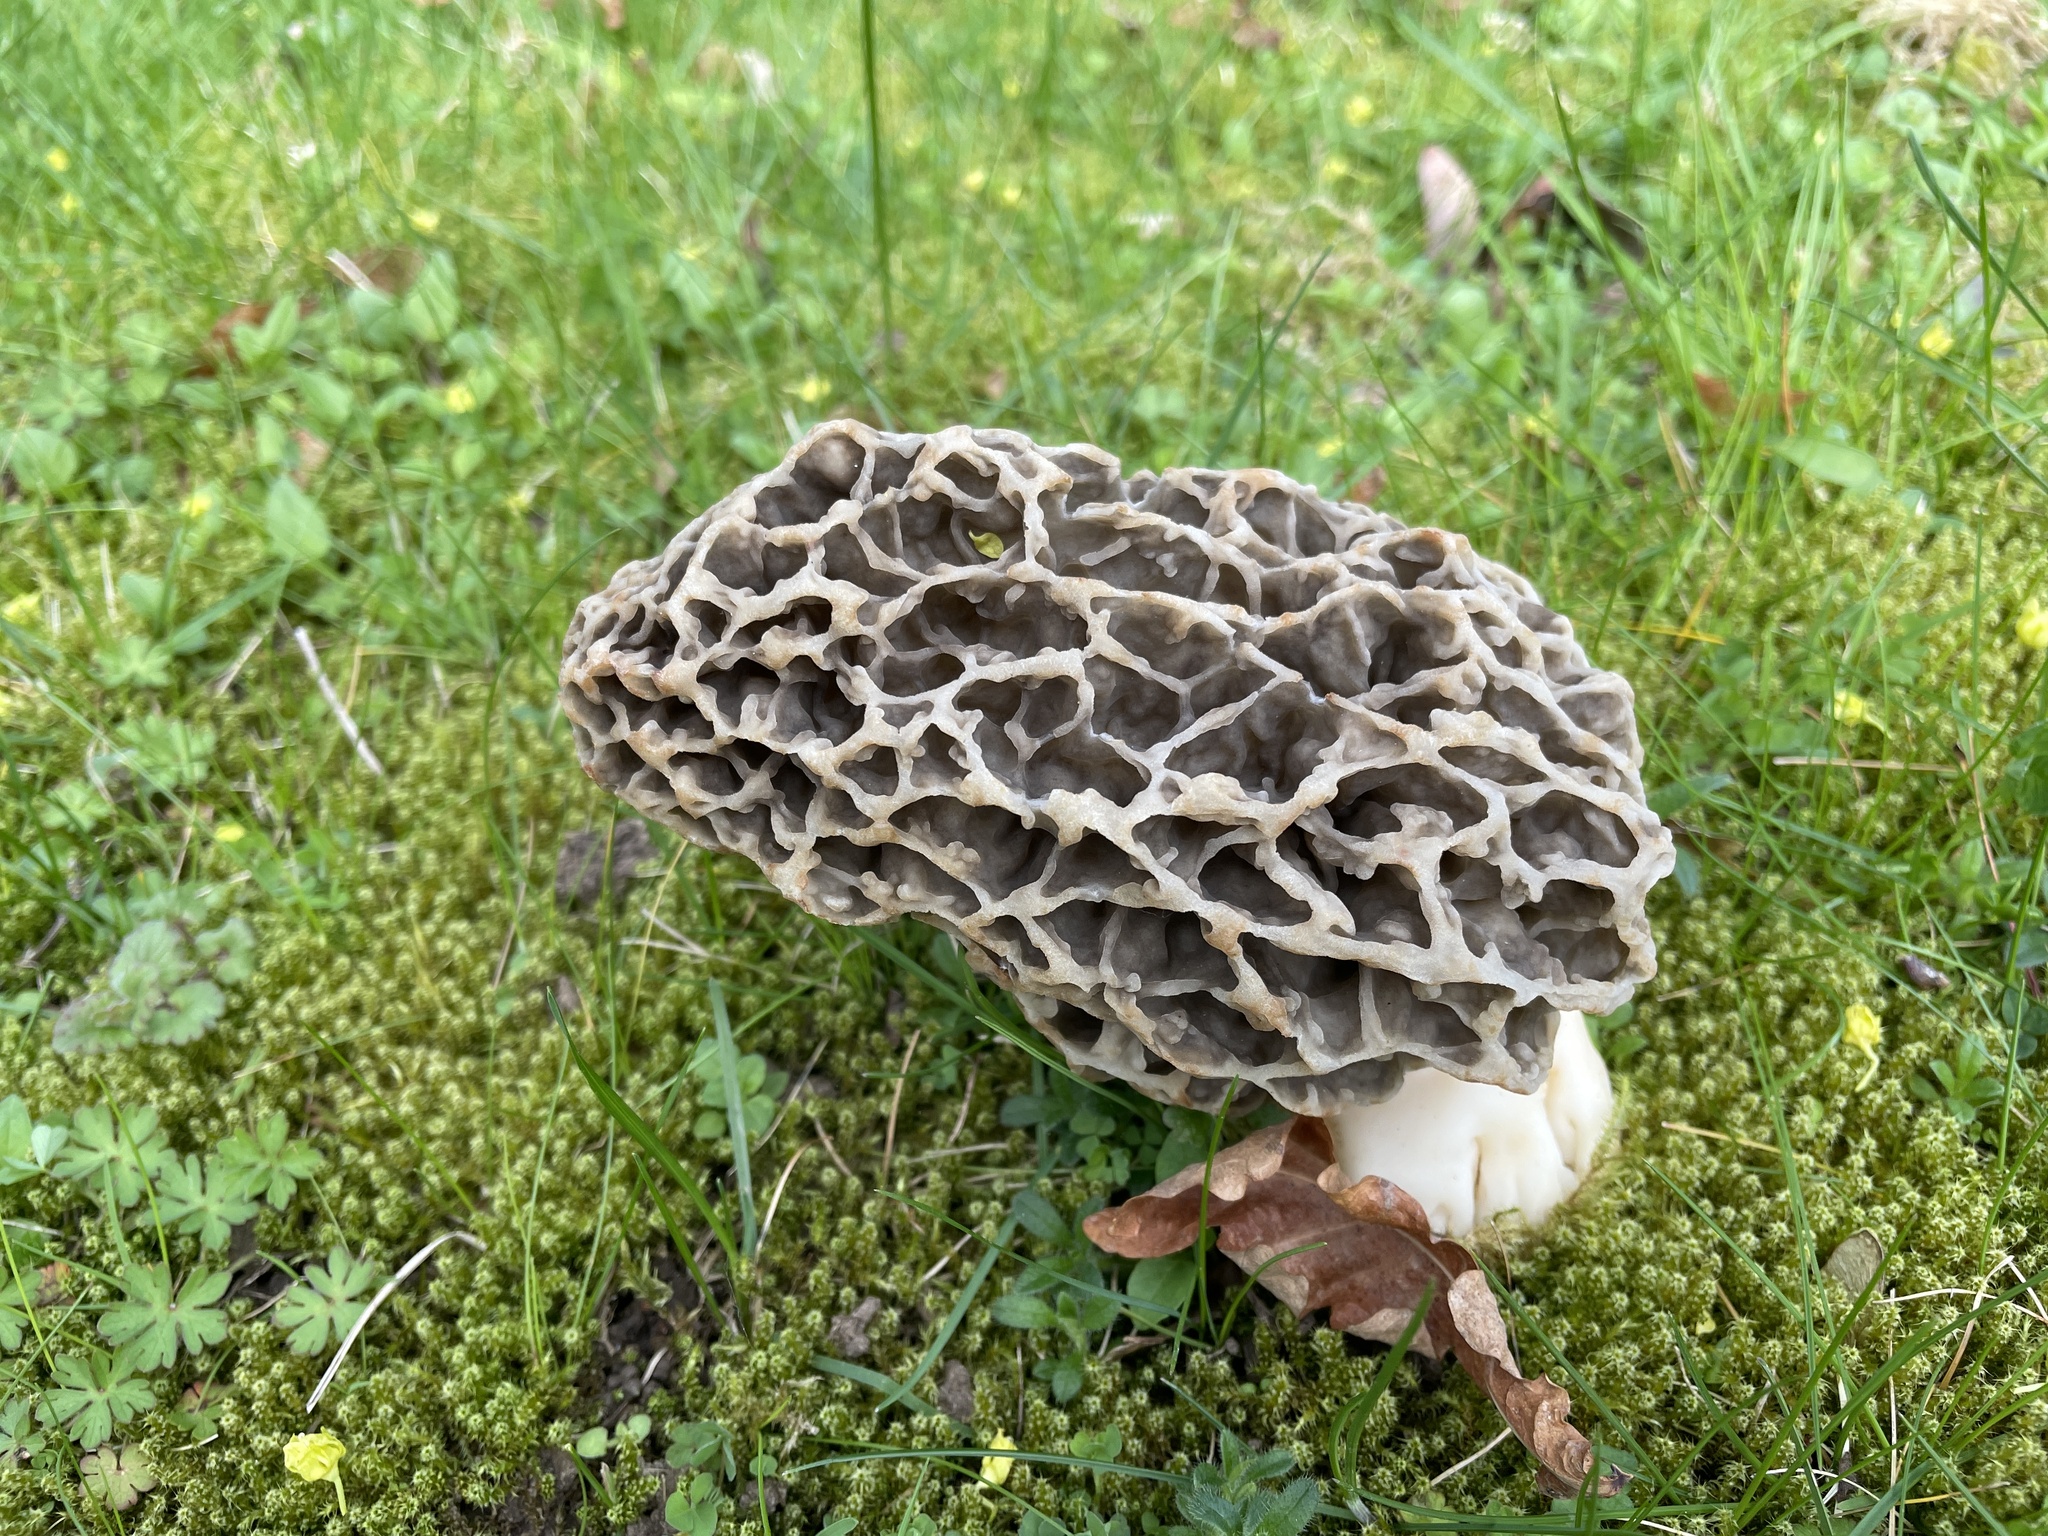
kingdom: Fungi
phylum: Ascomycota
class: Pezizomycetes
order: Pezizales
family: Morchellaceae
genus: Morchella
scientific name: Morchella vulgaris
